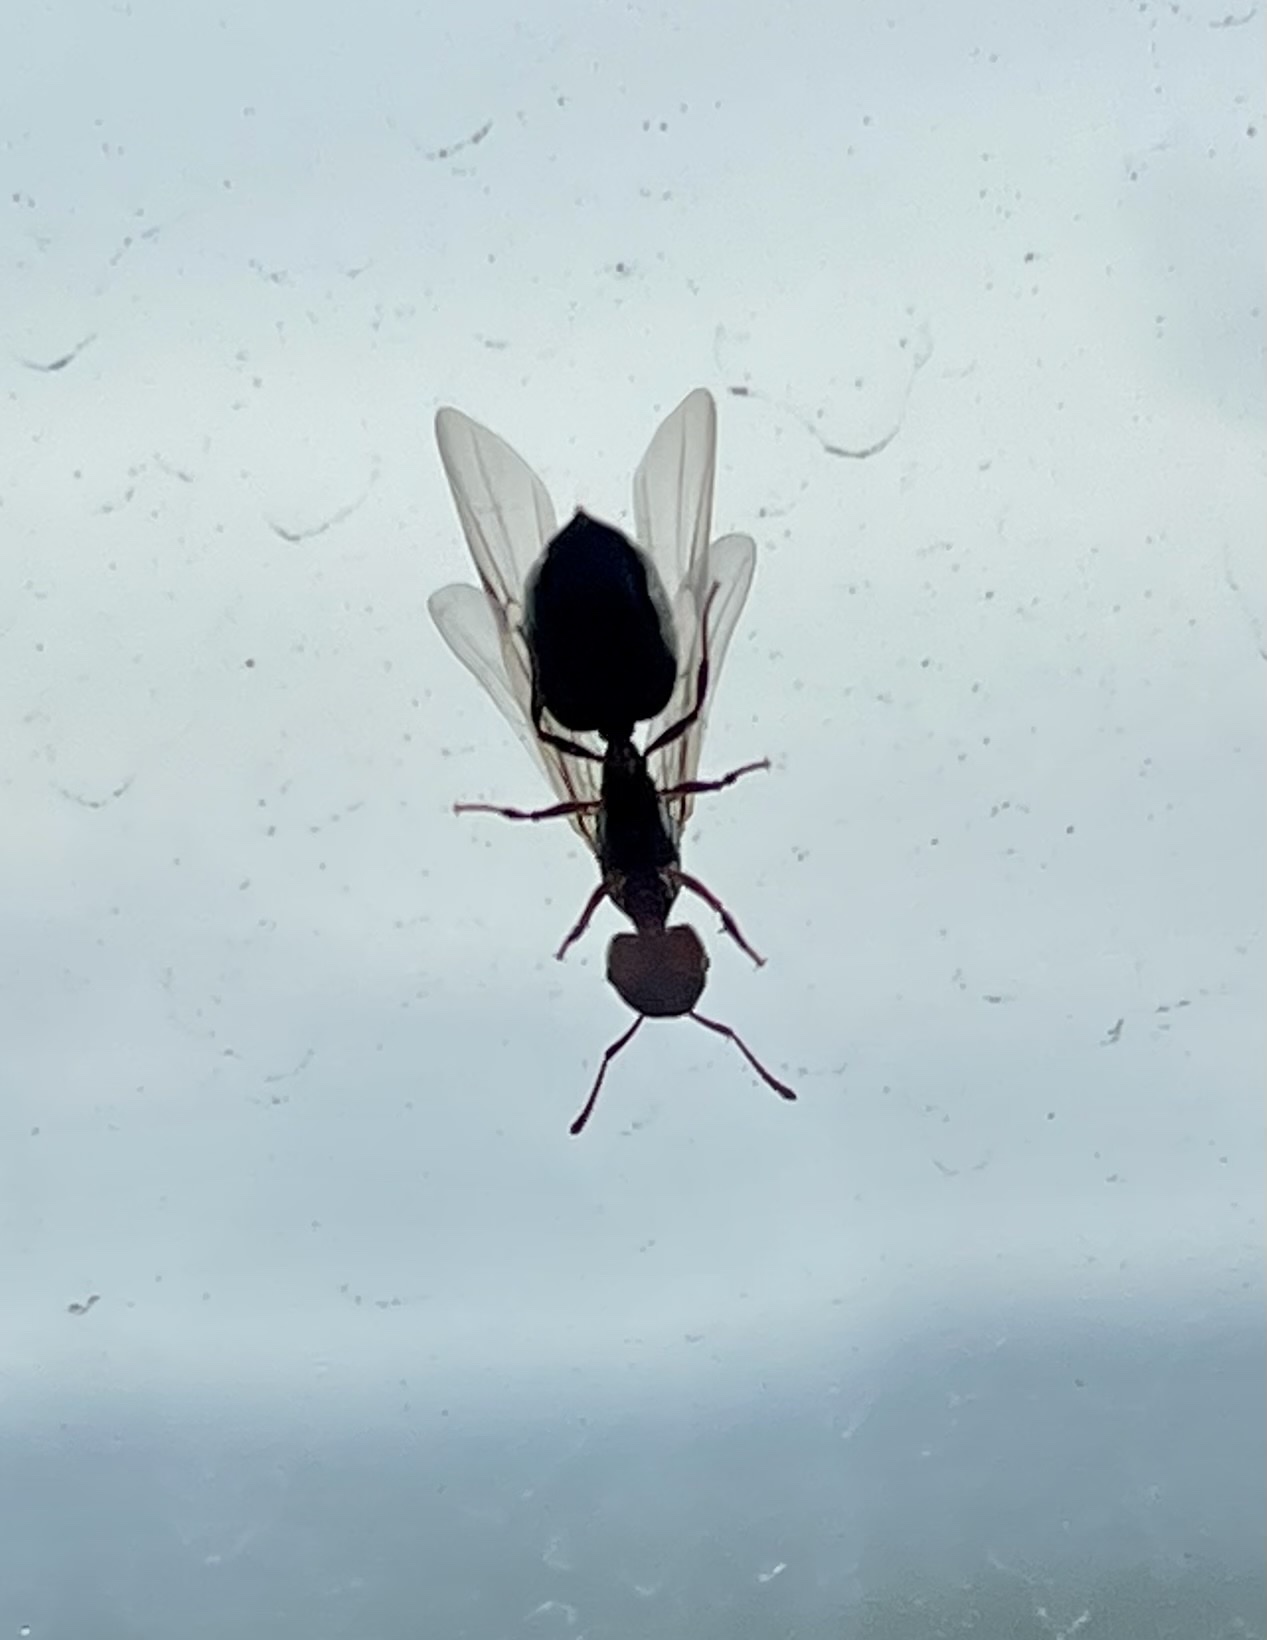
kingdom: Animalia
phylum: Arthropoda
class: Insecta
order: Hymenoptera
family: Formicidae
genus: Crematogaster
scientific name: Crematogaster scutellaris
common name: Fourmi du liège
